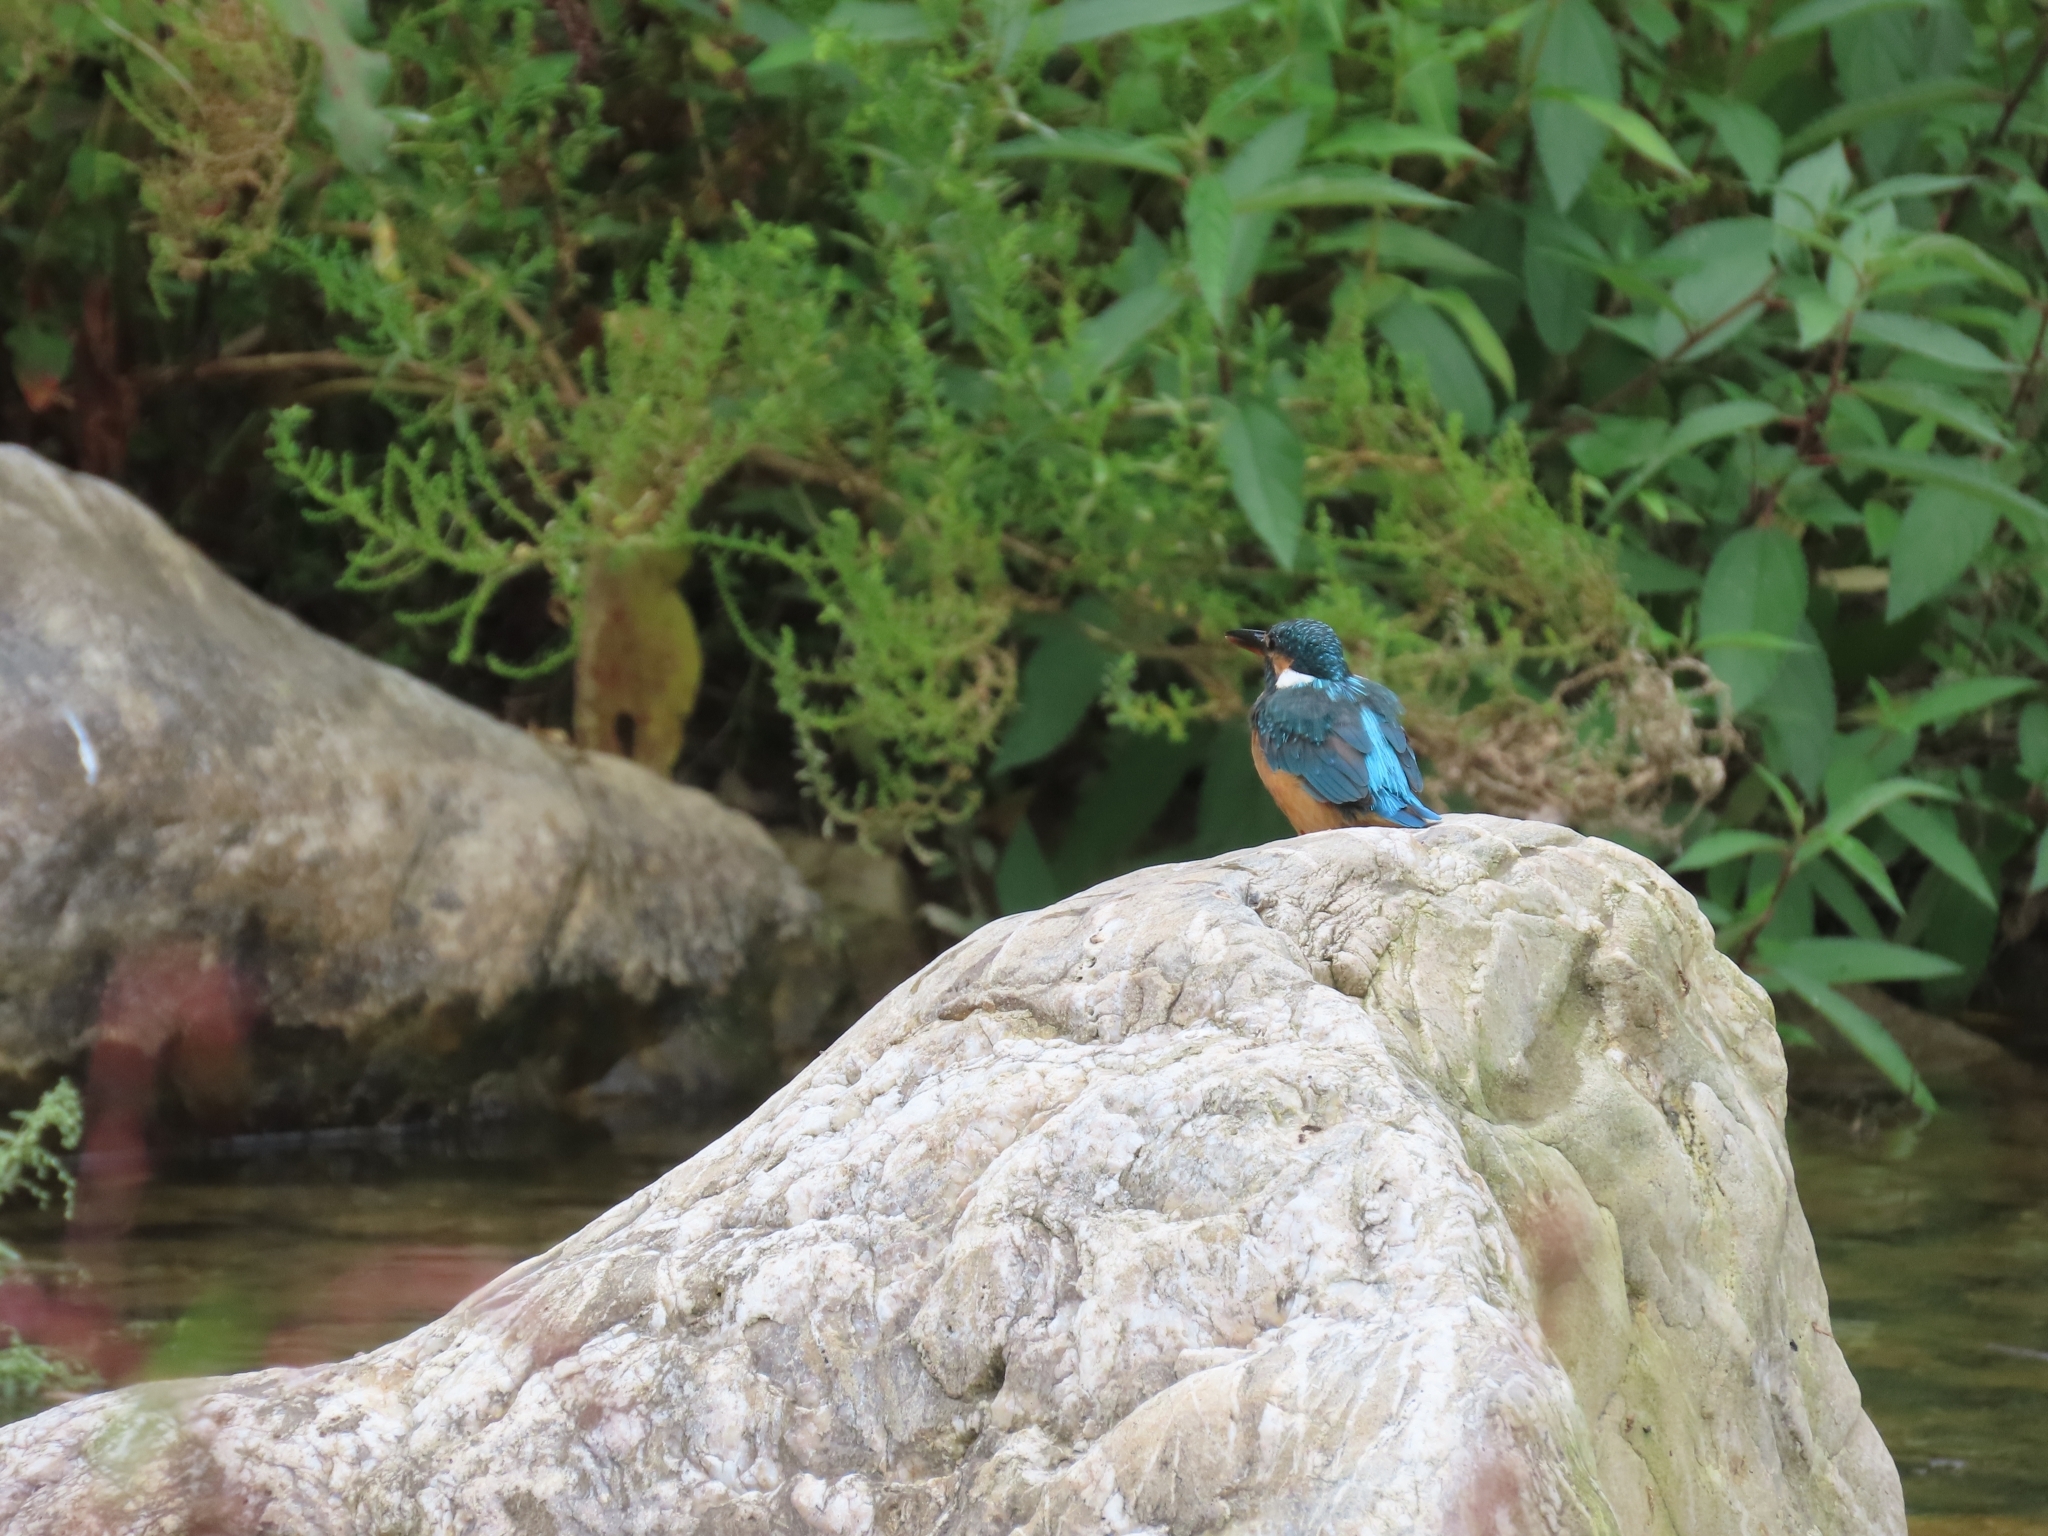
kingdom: Animalia
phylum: Chordata
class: Aves
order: Coraciiformes
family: Alcedinidae
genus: Alcedo
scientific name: Alcedo atthis
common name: Common kingfisher
